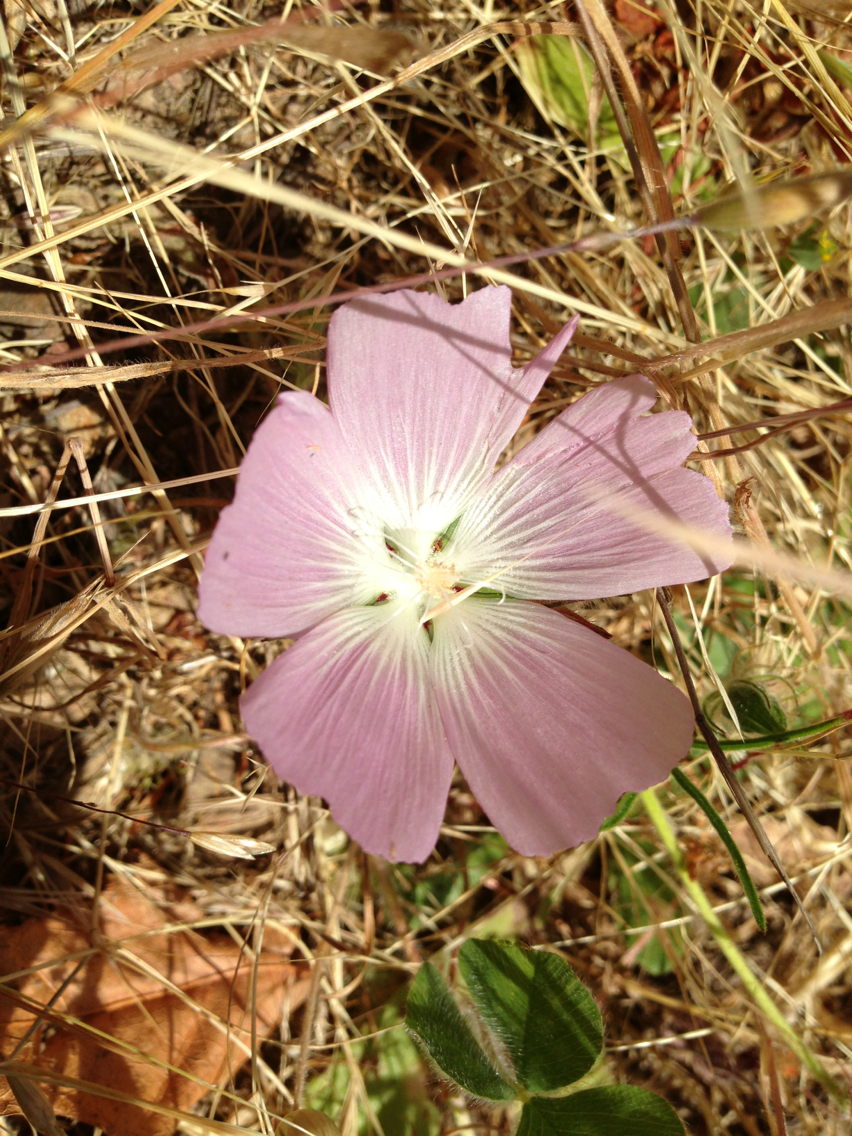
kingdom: Plantae
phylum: Tracheophyta
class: Magnoliopsida
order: Malvales
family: Malvaceae
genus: Sidalcea
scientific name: Sidalcea diploscypha
